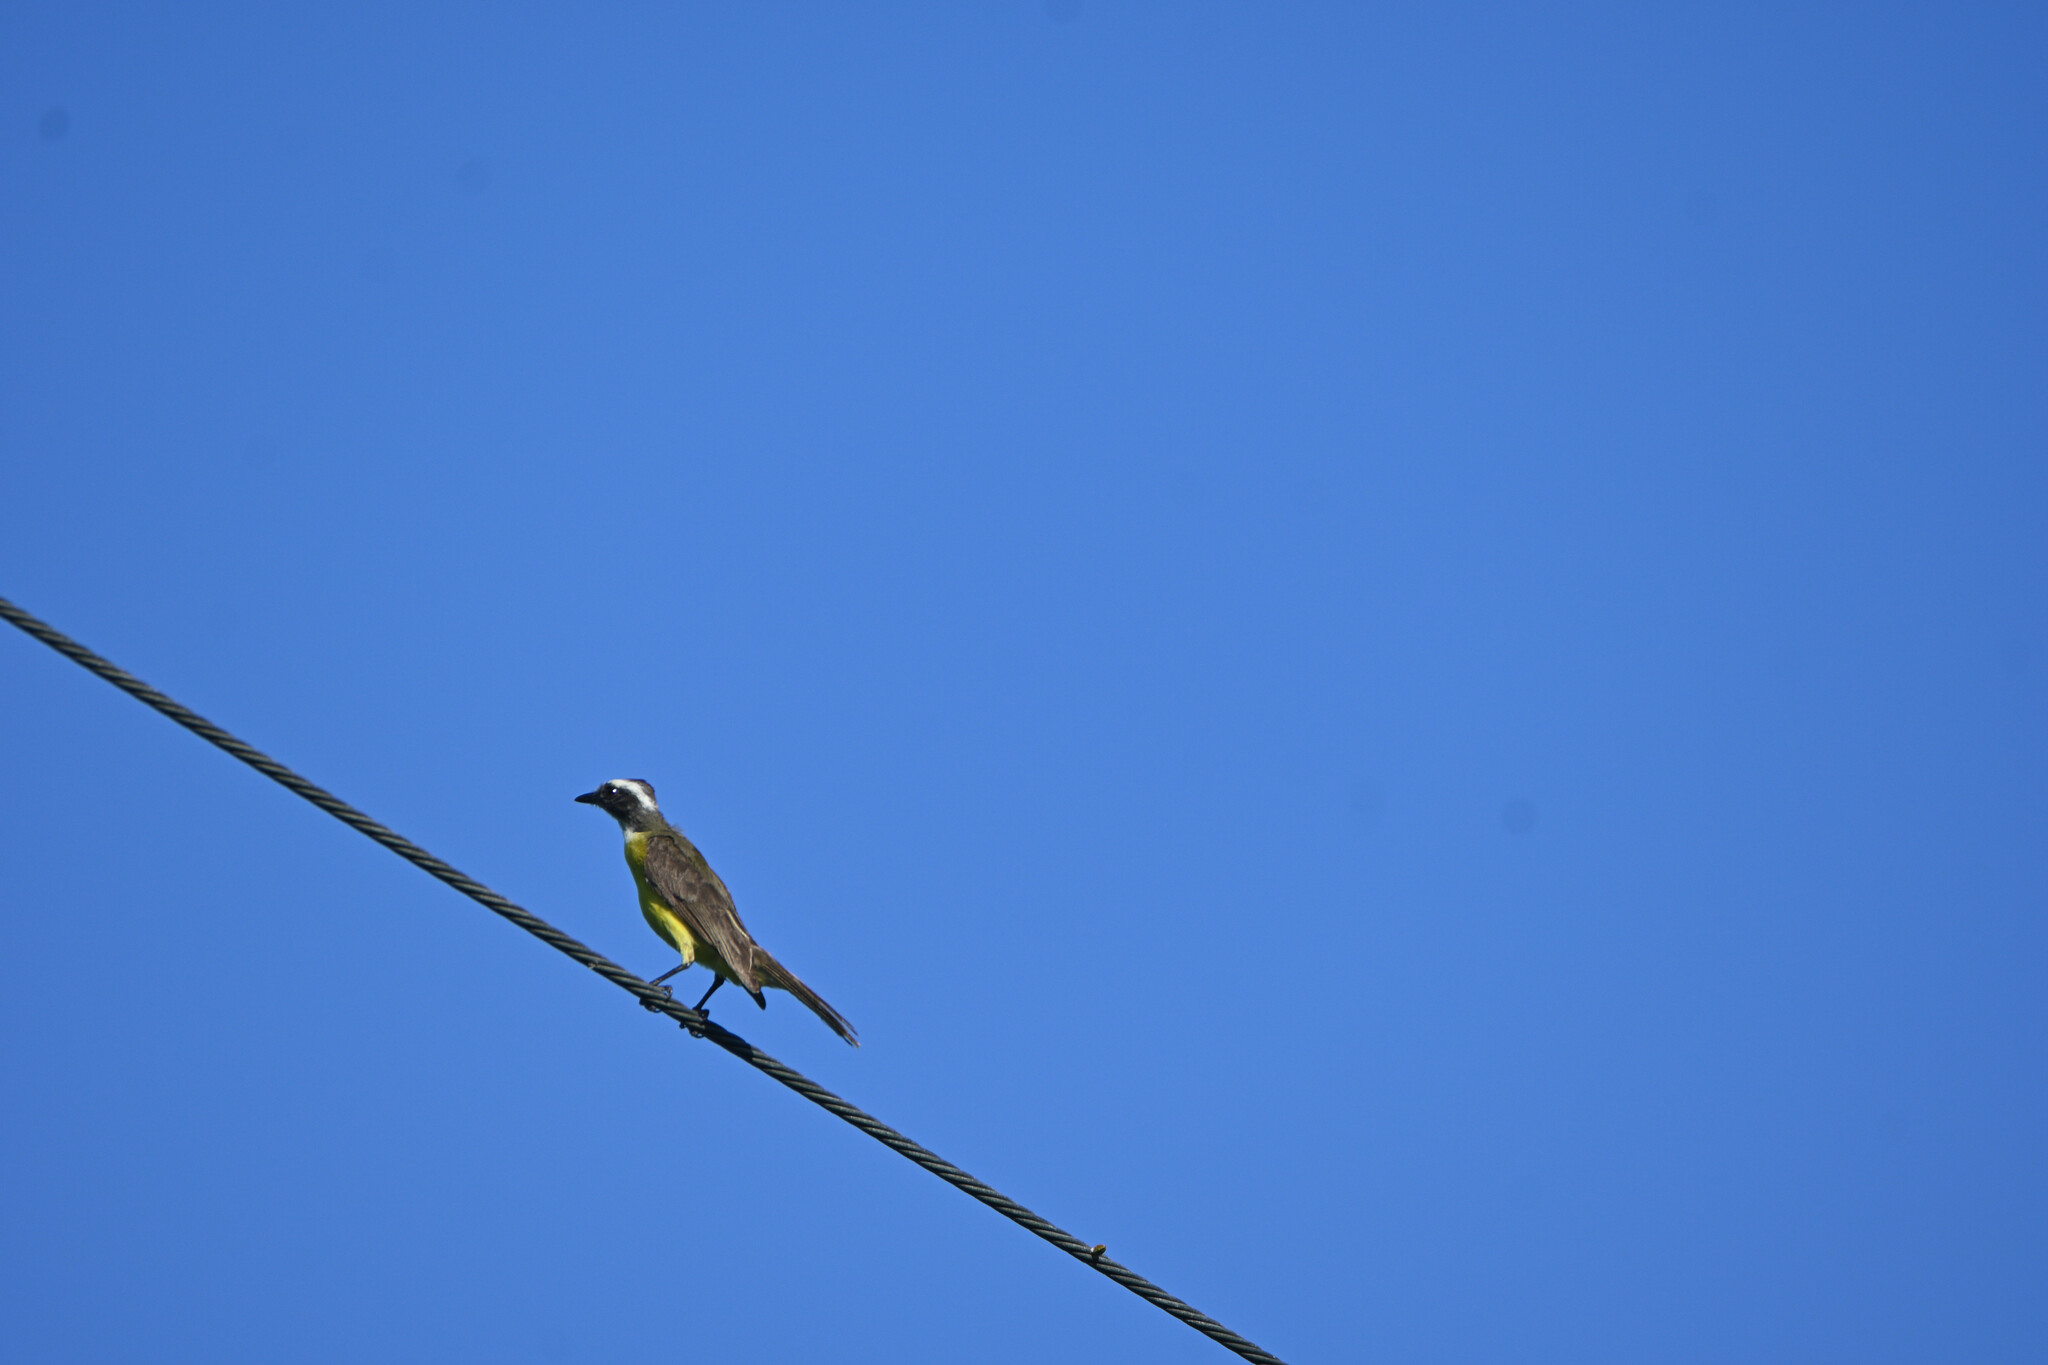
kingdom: Animalia
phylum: Chordata
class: Aves
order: Passeriformes
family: Tyrannidae
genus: Myiozetetes
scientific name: Myiozetetes similis
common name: Social flycatcher
